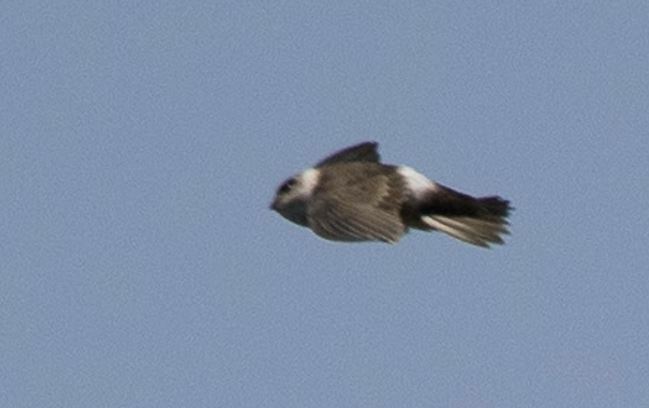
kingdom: Animalia
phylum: Chordata
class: Aves
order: Apodiformes
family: Apodidae
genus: Aeronautes
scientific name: Aeronautes andecolus
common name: Andean swift
